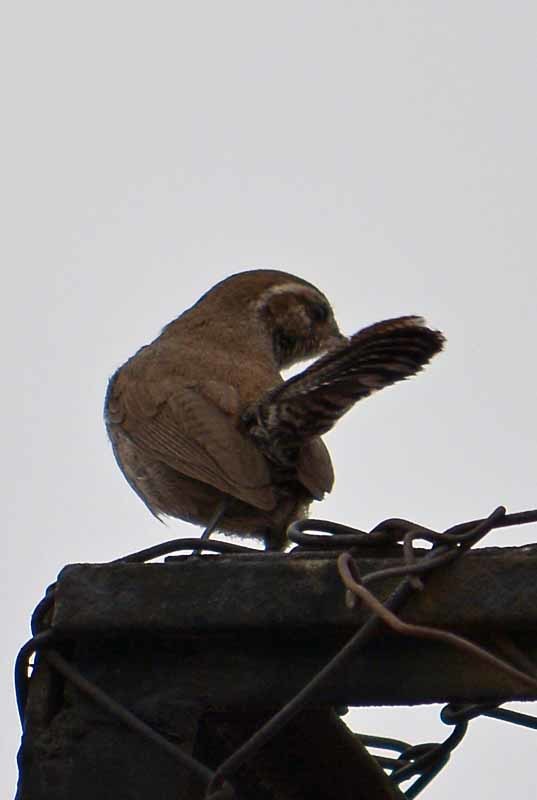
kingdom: Animalia
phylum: Chordata
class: Aves
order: Passeriformes
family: Troglodytidae
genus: Thryomanes
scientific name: Thryomanes bewickii
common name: Bewick's wren
